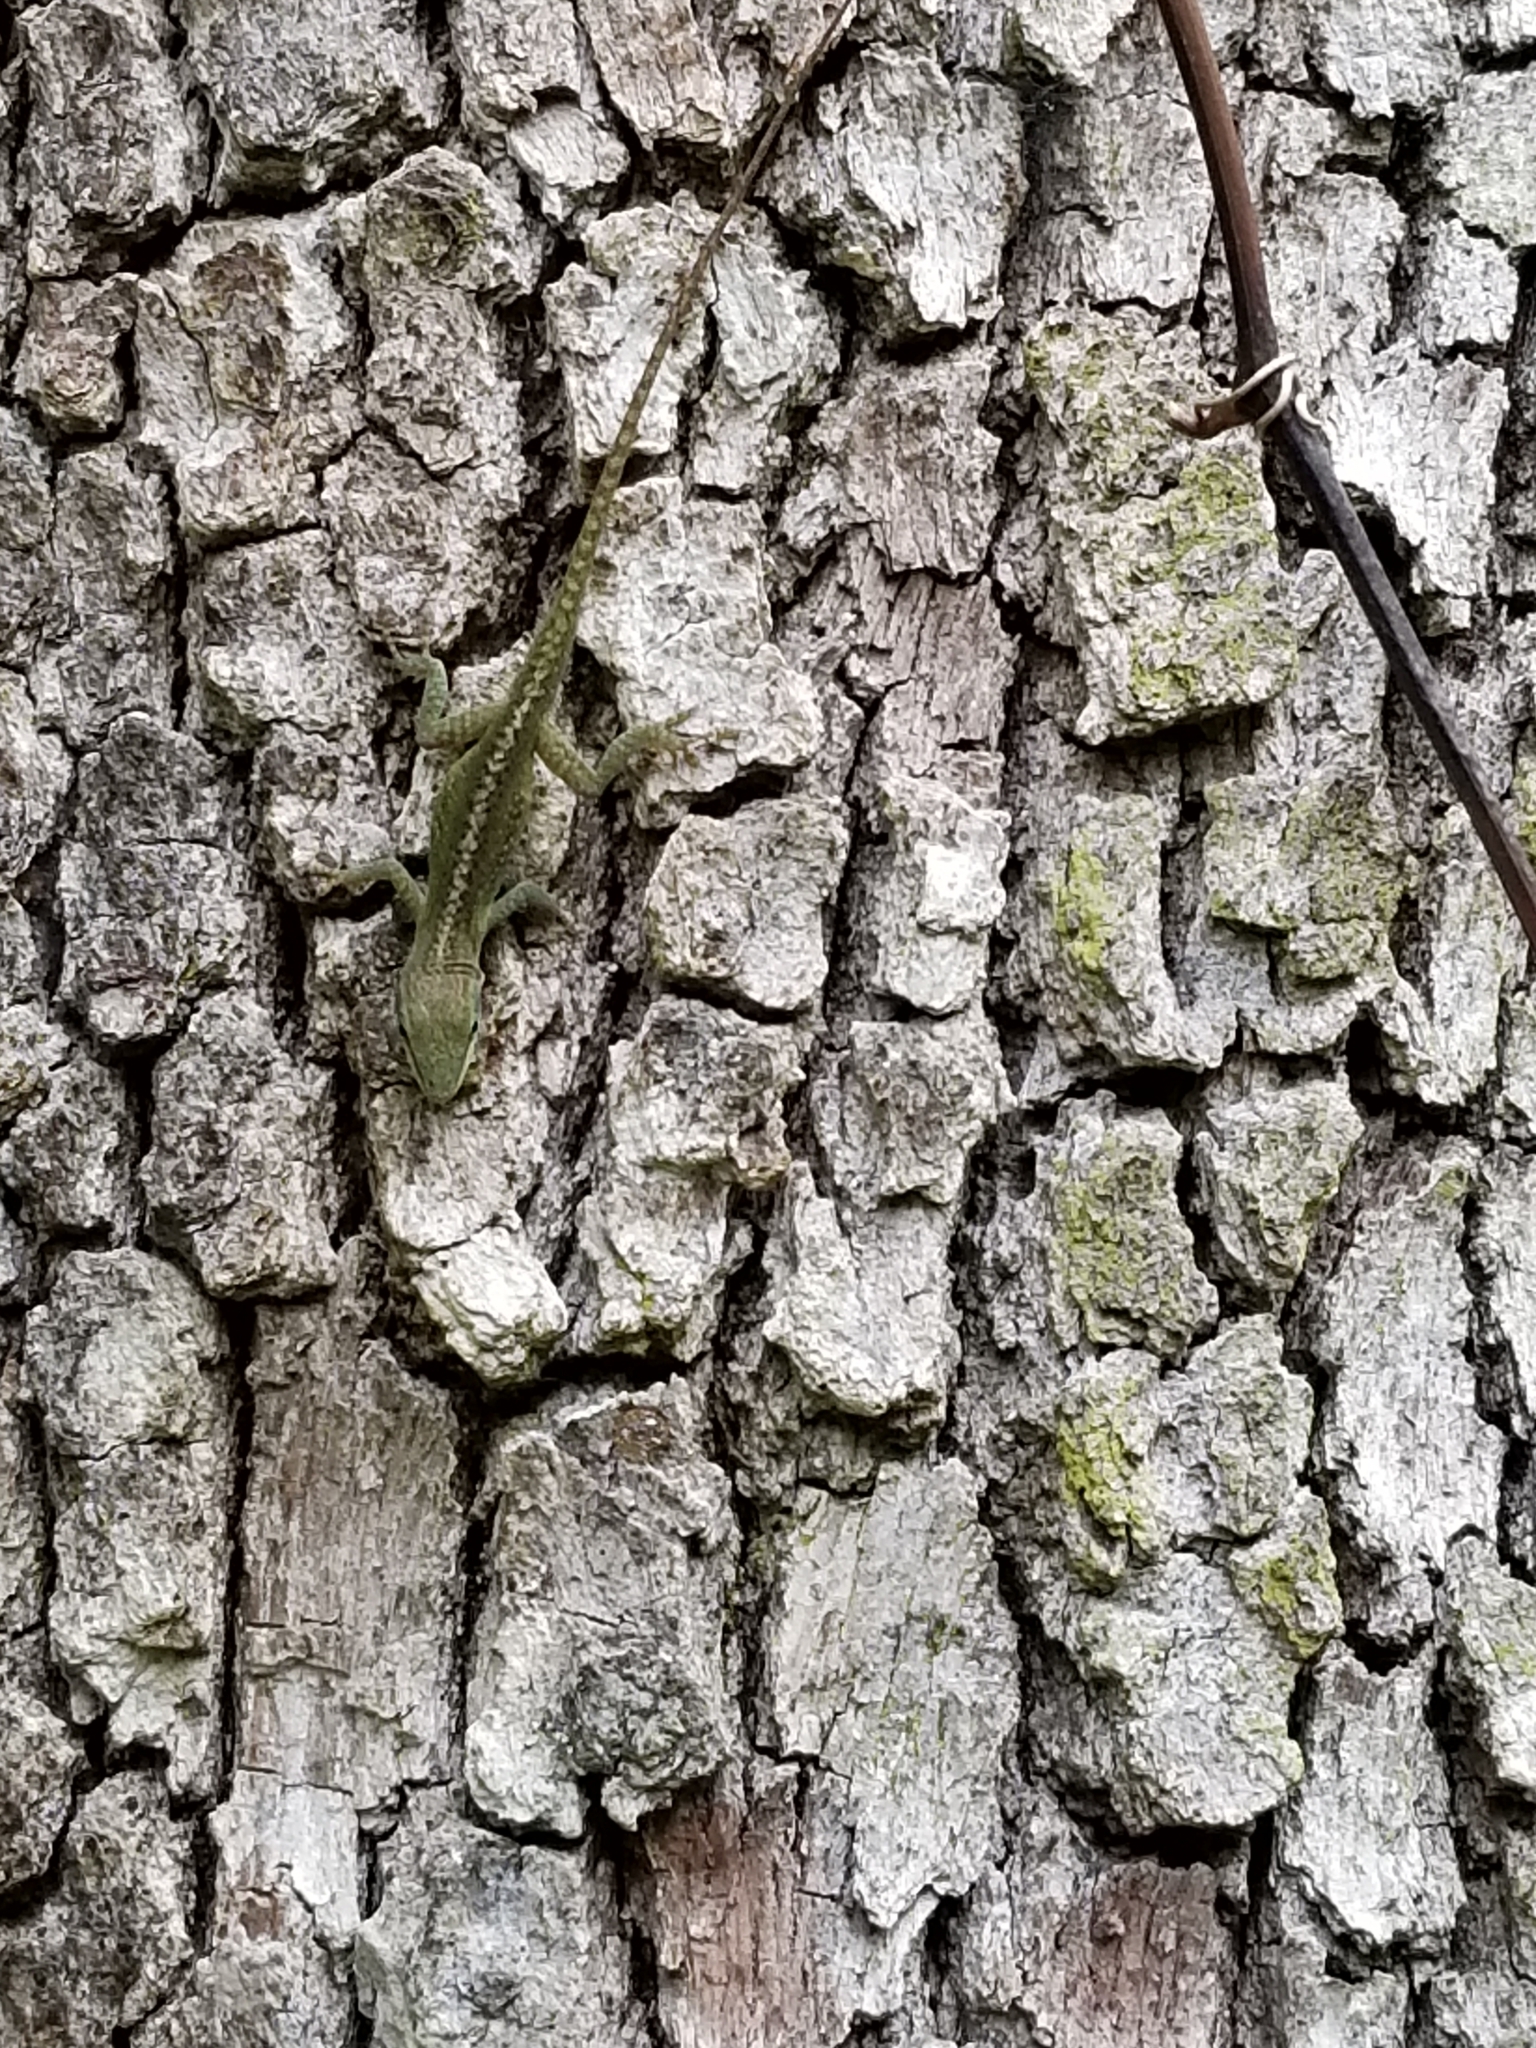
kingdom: Animalia
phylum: Chordata
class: Squamata
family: Dactyloidae
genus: Anolis
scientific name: Anolis carolinensis
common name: Green anole
